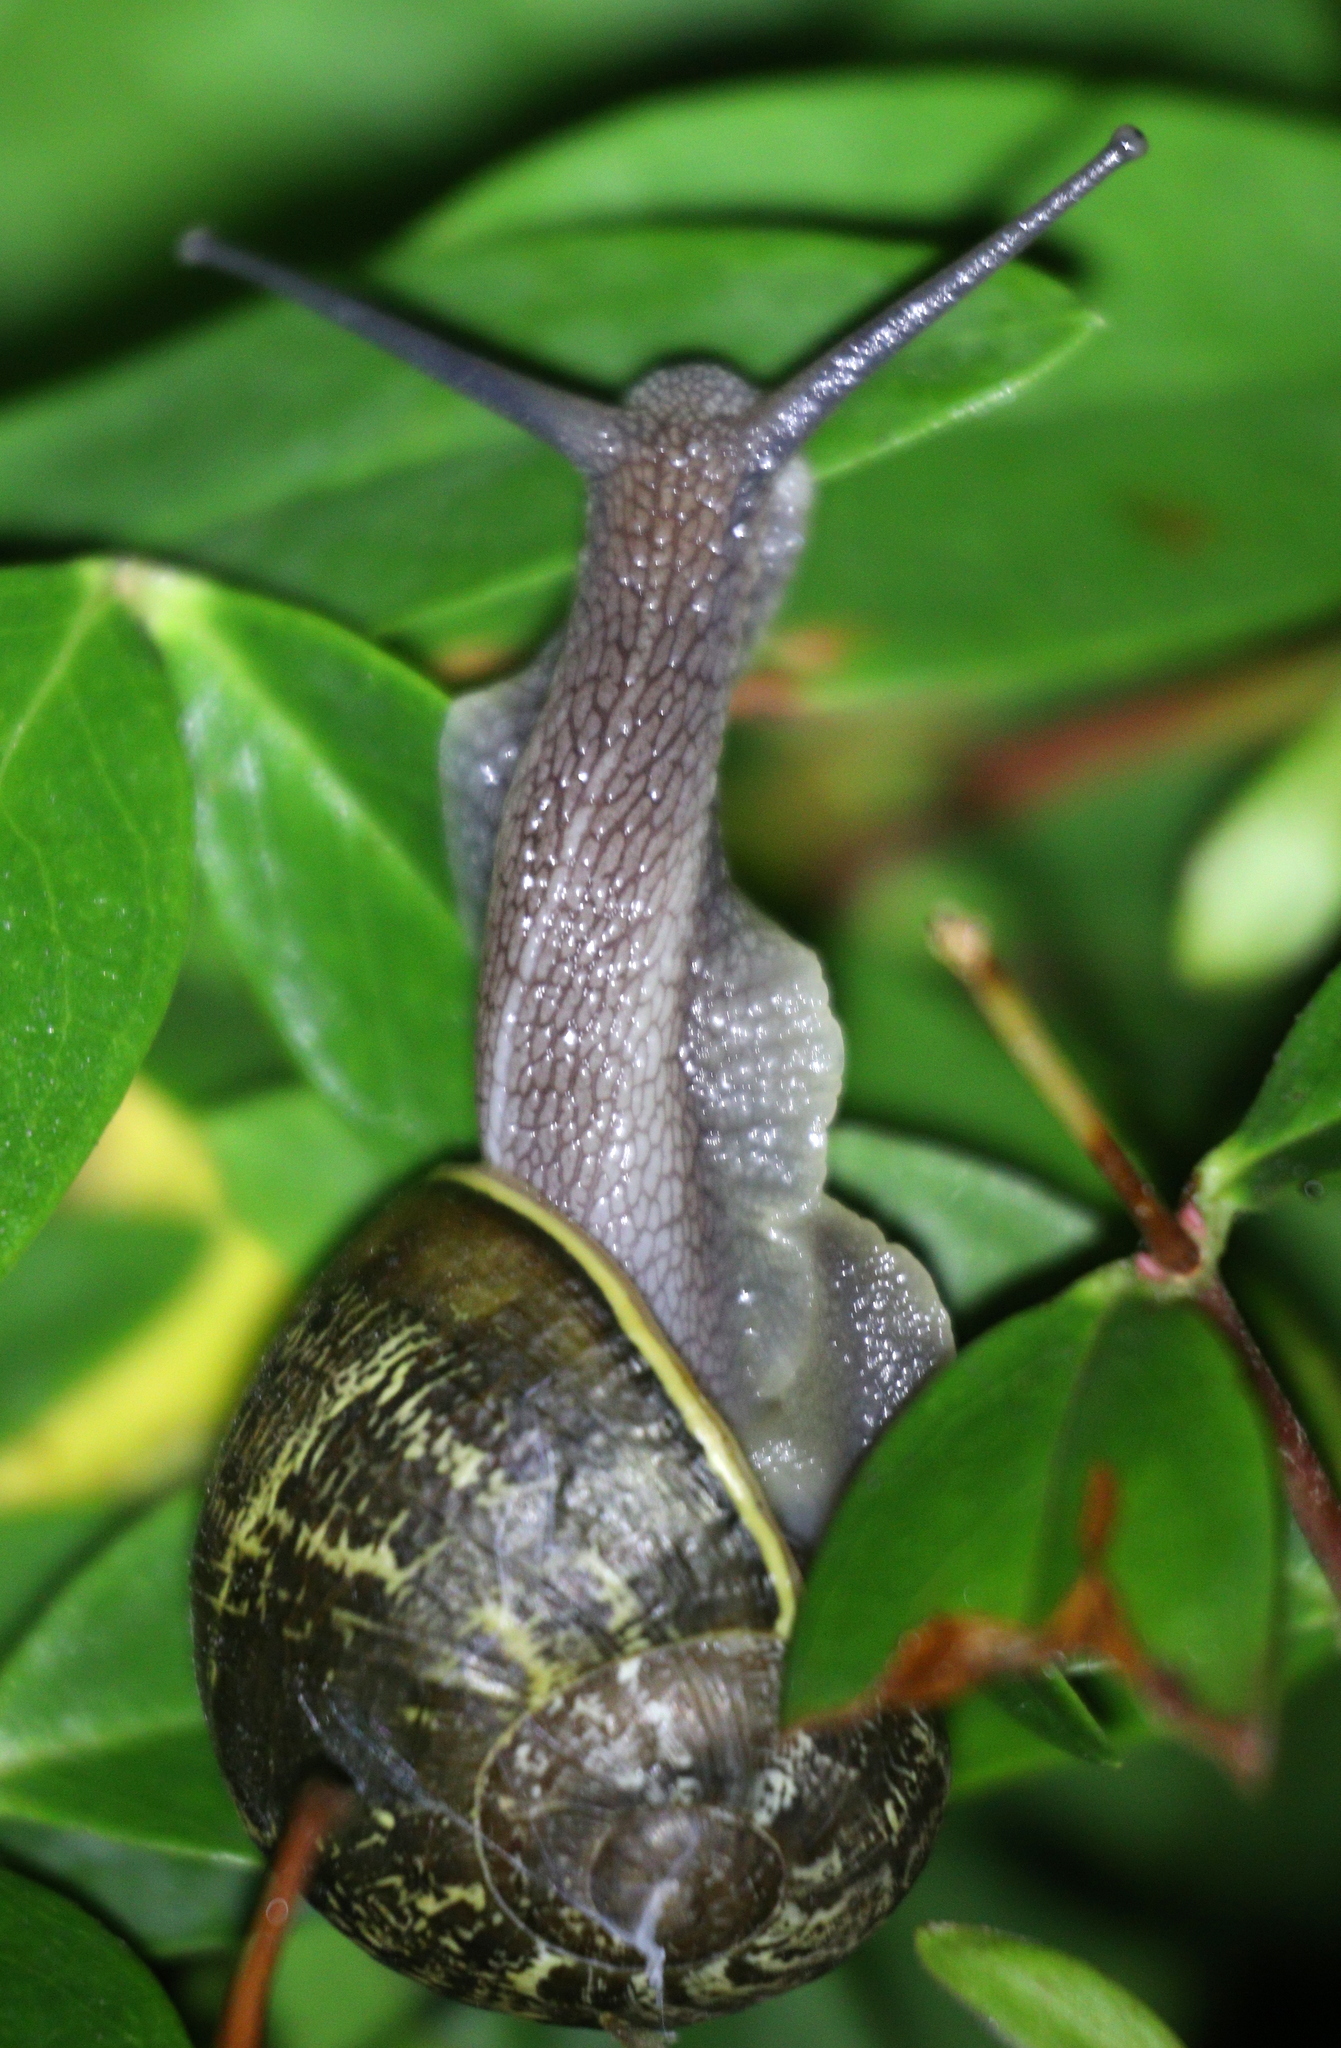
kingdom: Animalia
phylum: Mollusca
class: Gastropoda
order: Stylommatophora
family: Helicidae
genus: Cornu
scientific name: Cornu aspersum
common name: Brown garden snail
